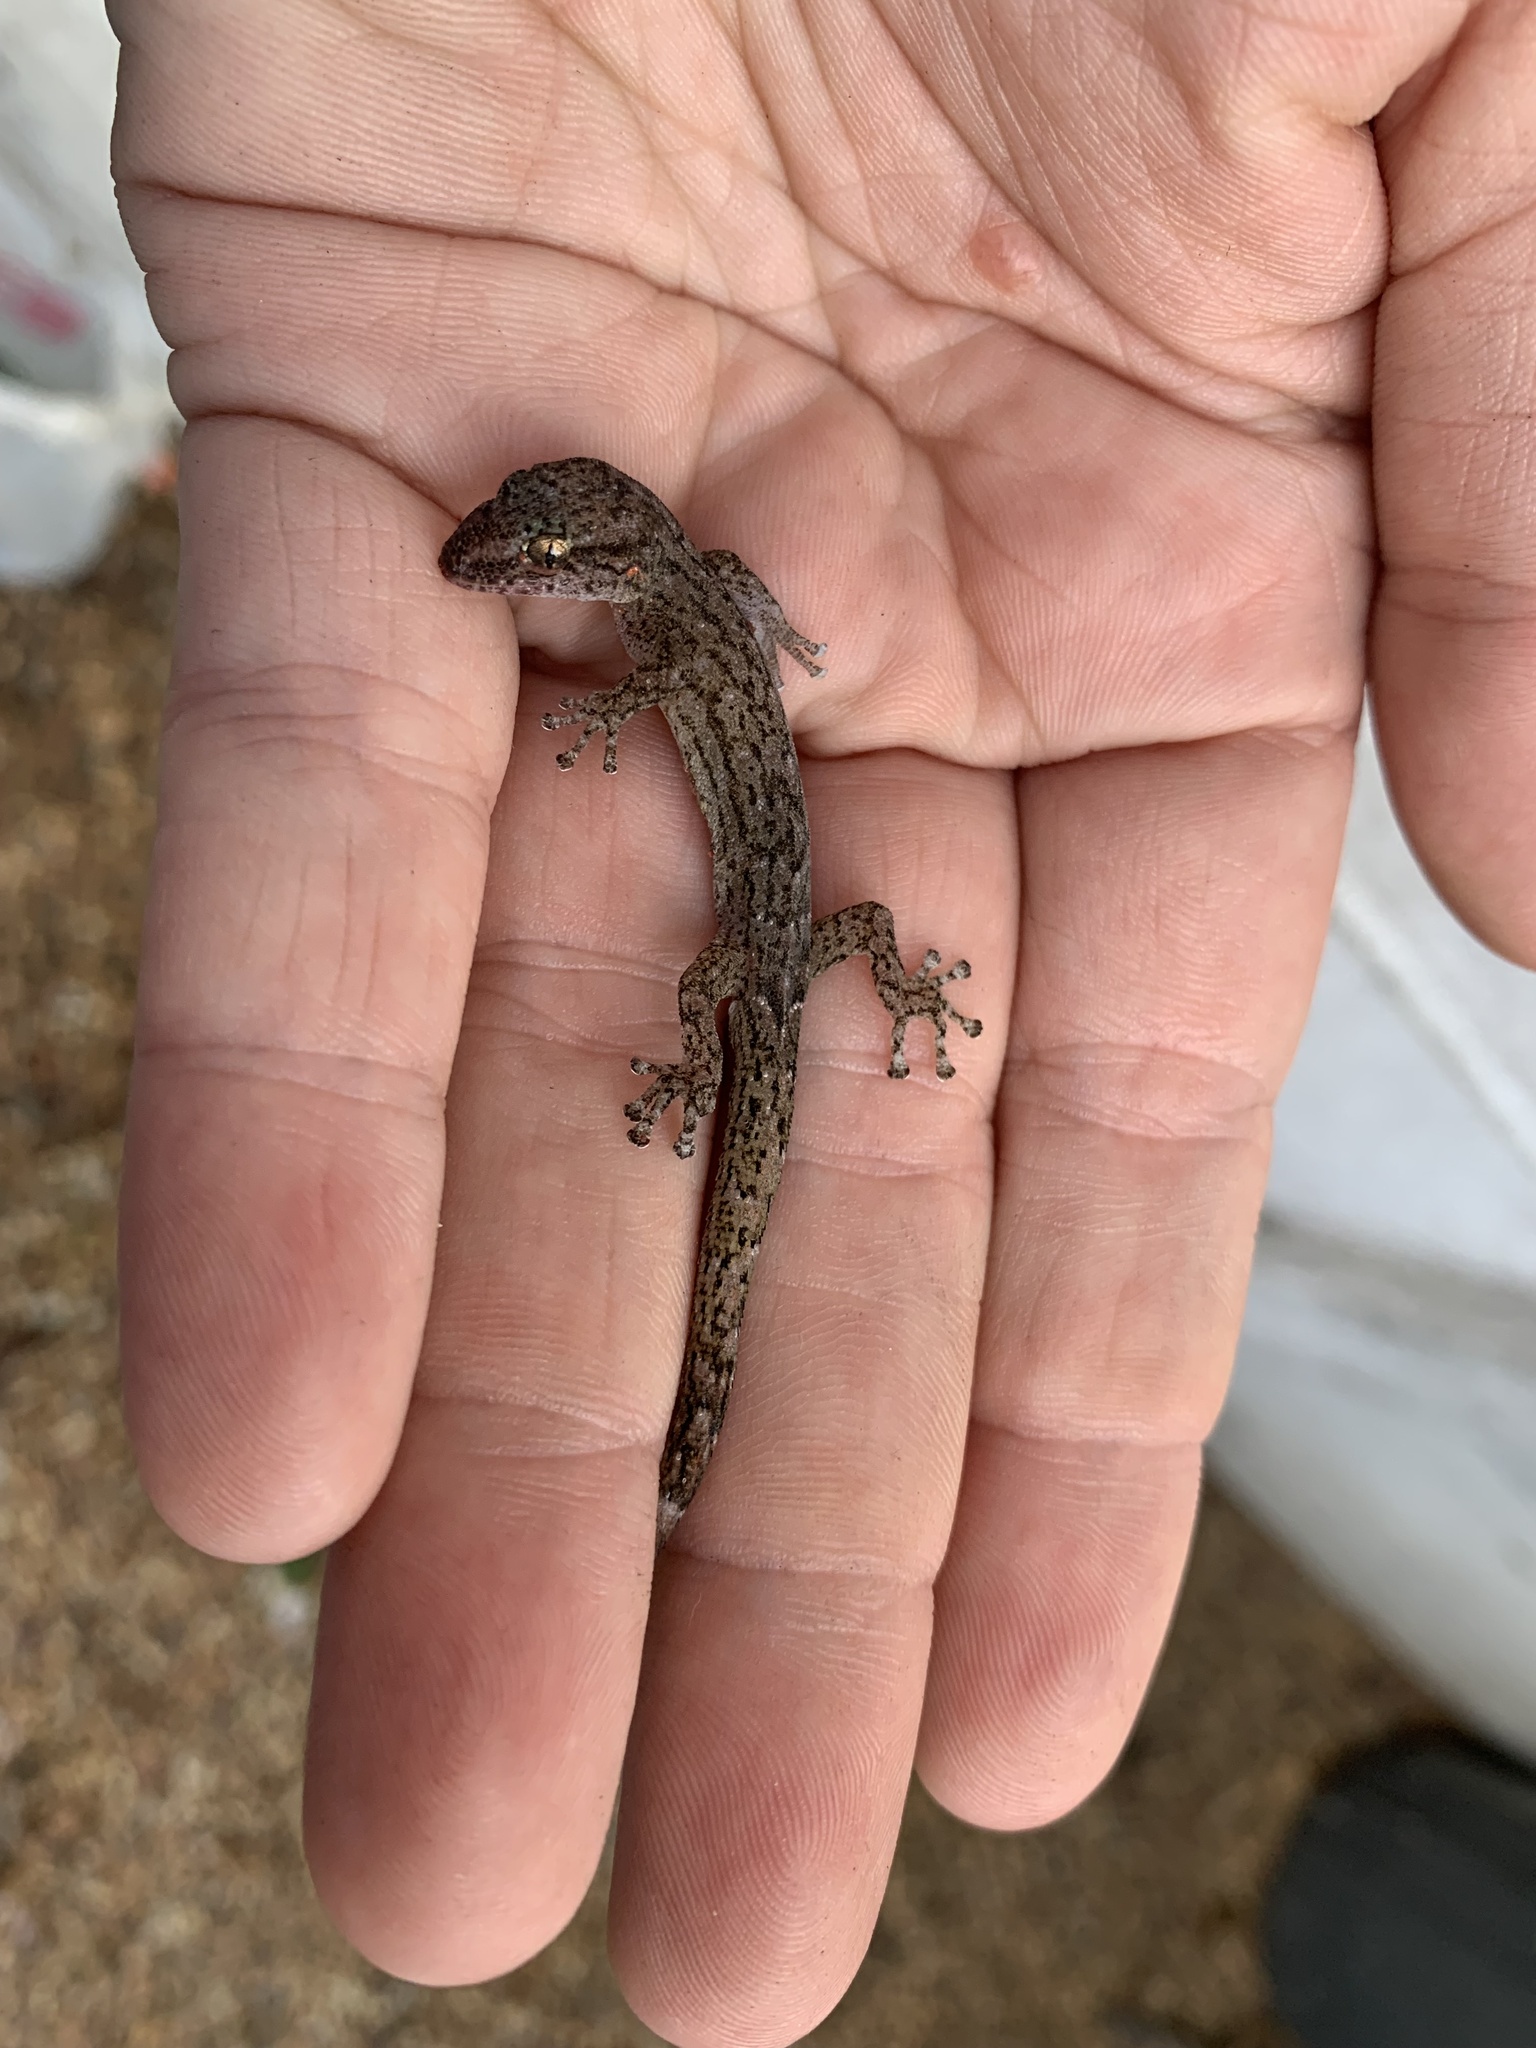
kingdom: Animalia
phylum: Chordata
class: Squamata
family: Gekkonidae
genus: Afrogecko
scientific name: Afrogecko porphyreus
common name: Marbled leaf-toed gecko
